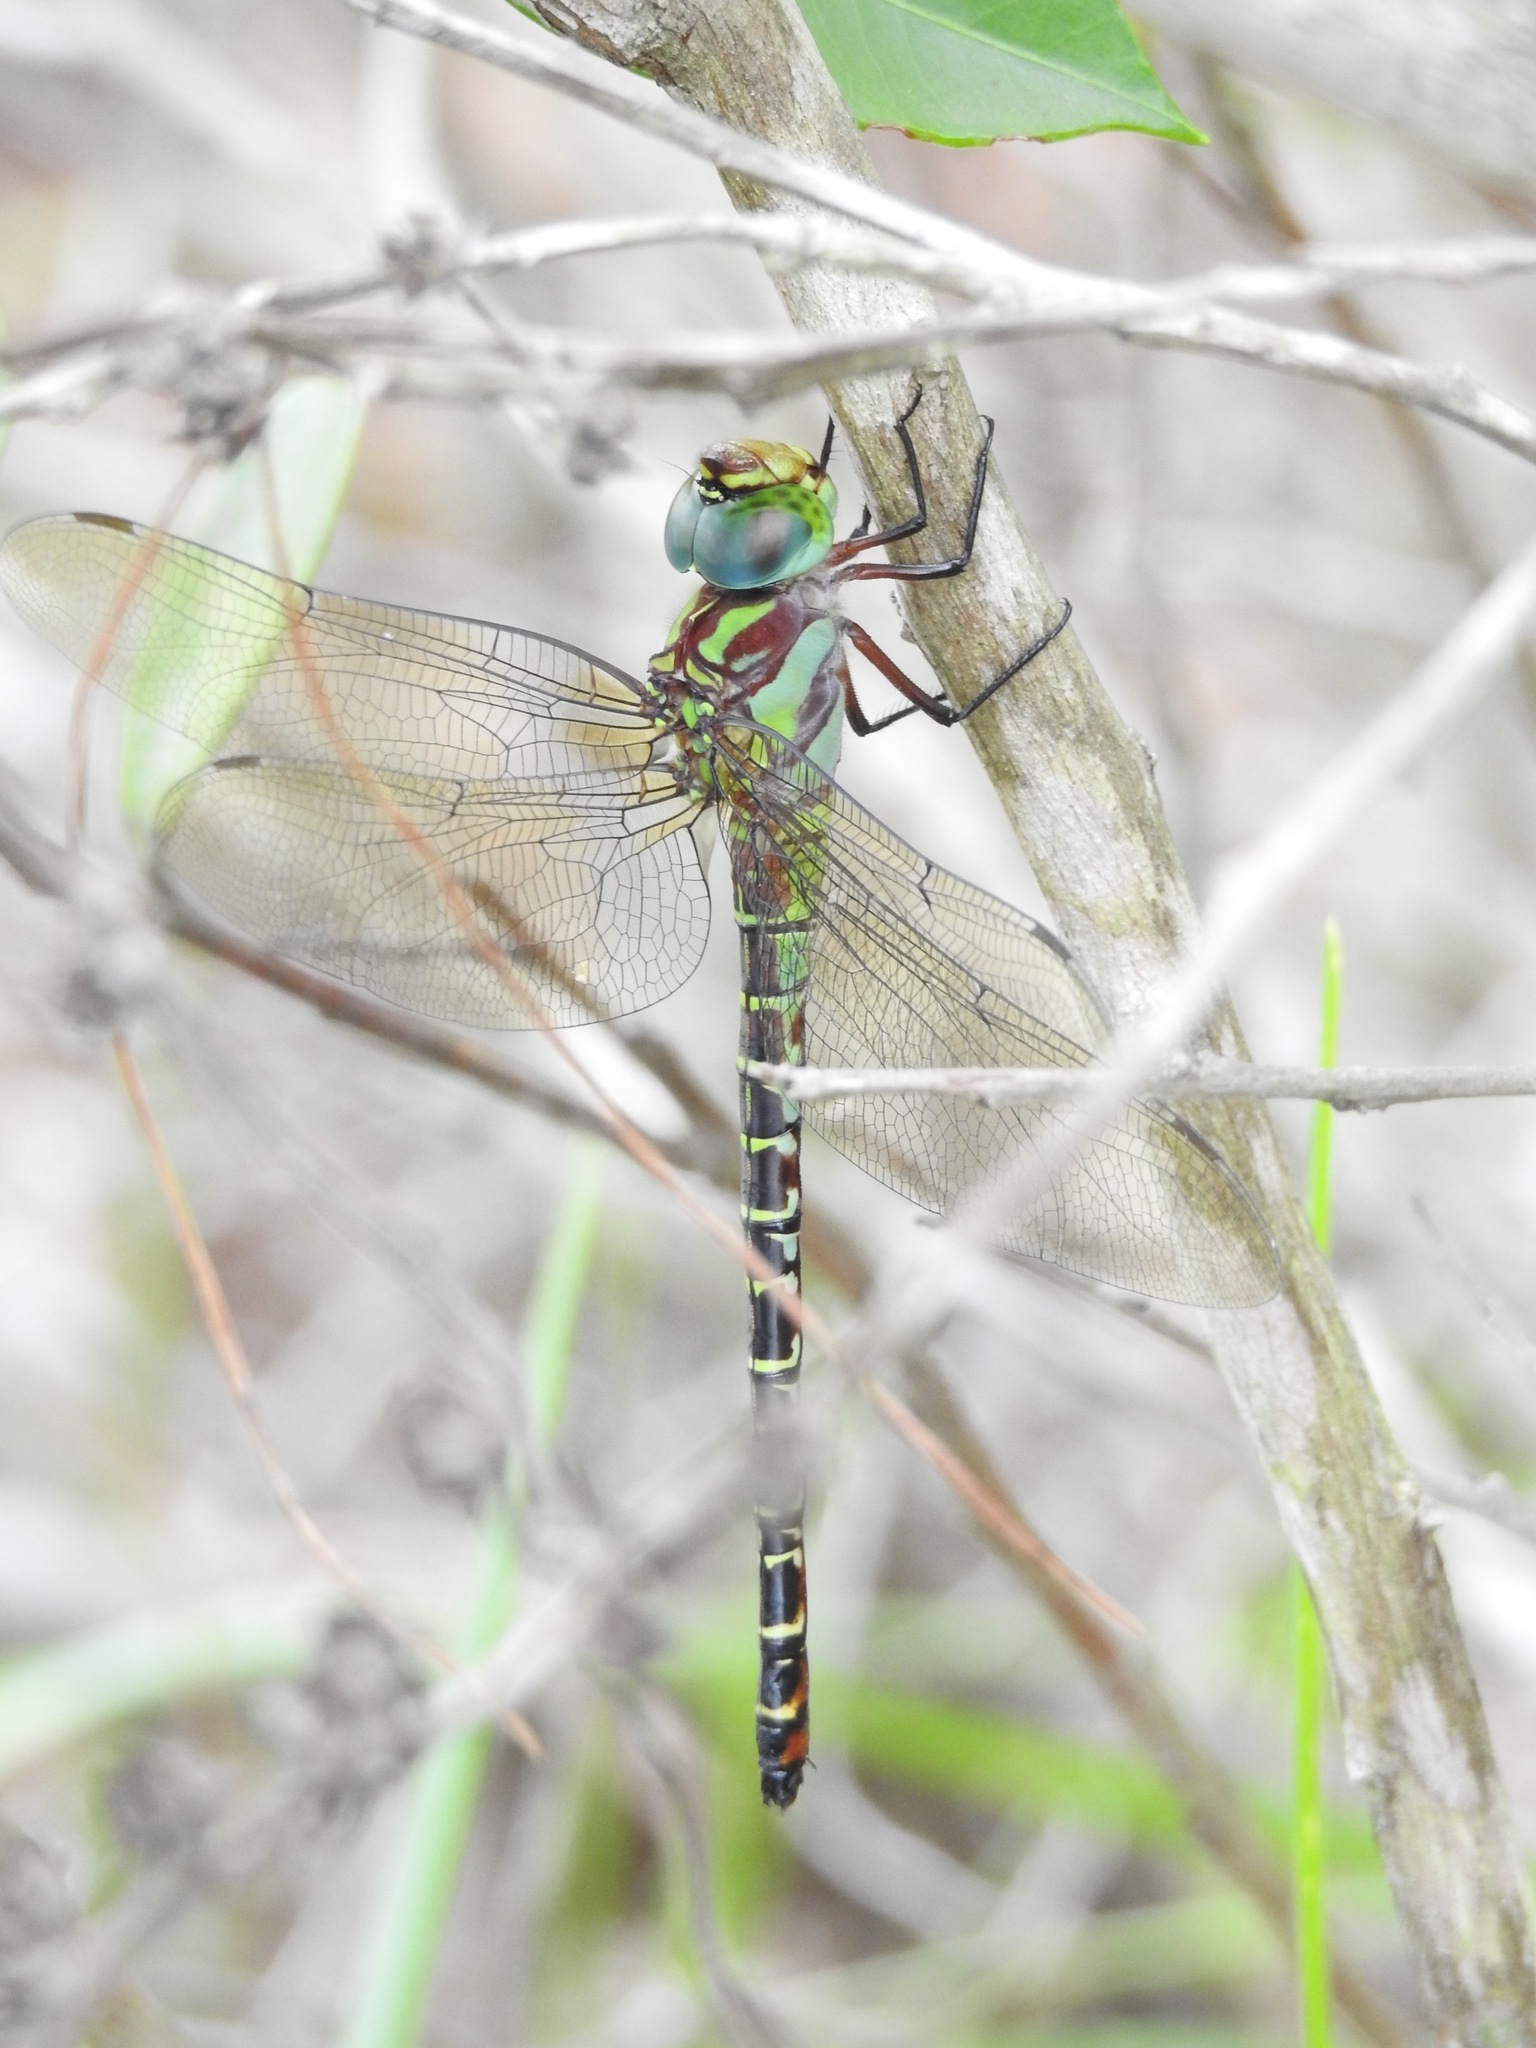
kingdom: Animalia
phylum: Arthropoda
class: Insecta
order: Odonata
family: Aeshnidae
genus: Coryphaeschna
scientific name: Coryphaeschna ingens
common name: Regal darner
